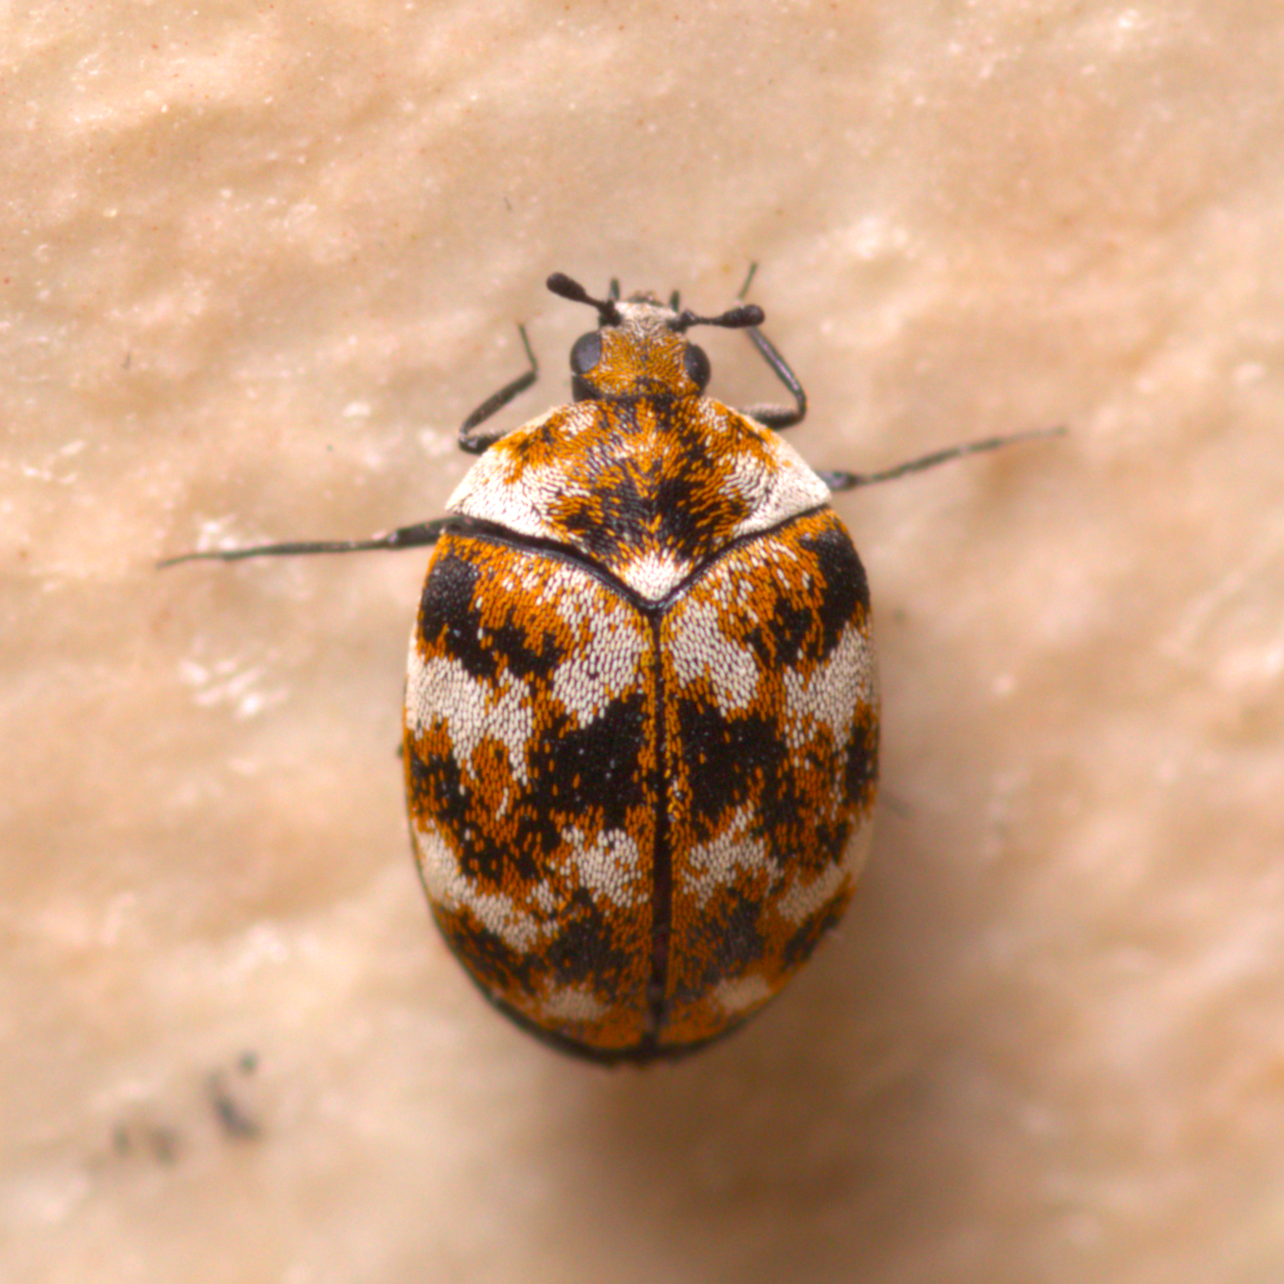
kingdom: Animalia
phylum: Arthropoda
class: Insecta
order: Coleoptera
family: Dermestidae
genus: Anthrenus
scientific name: Anthrenus verbasci
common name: Varied carpet beetle
